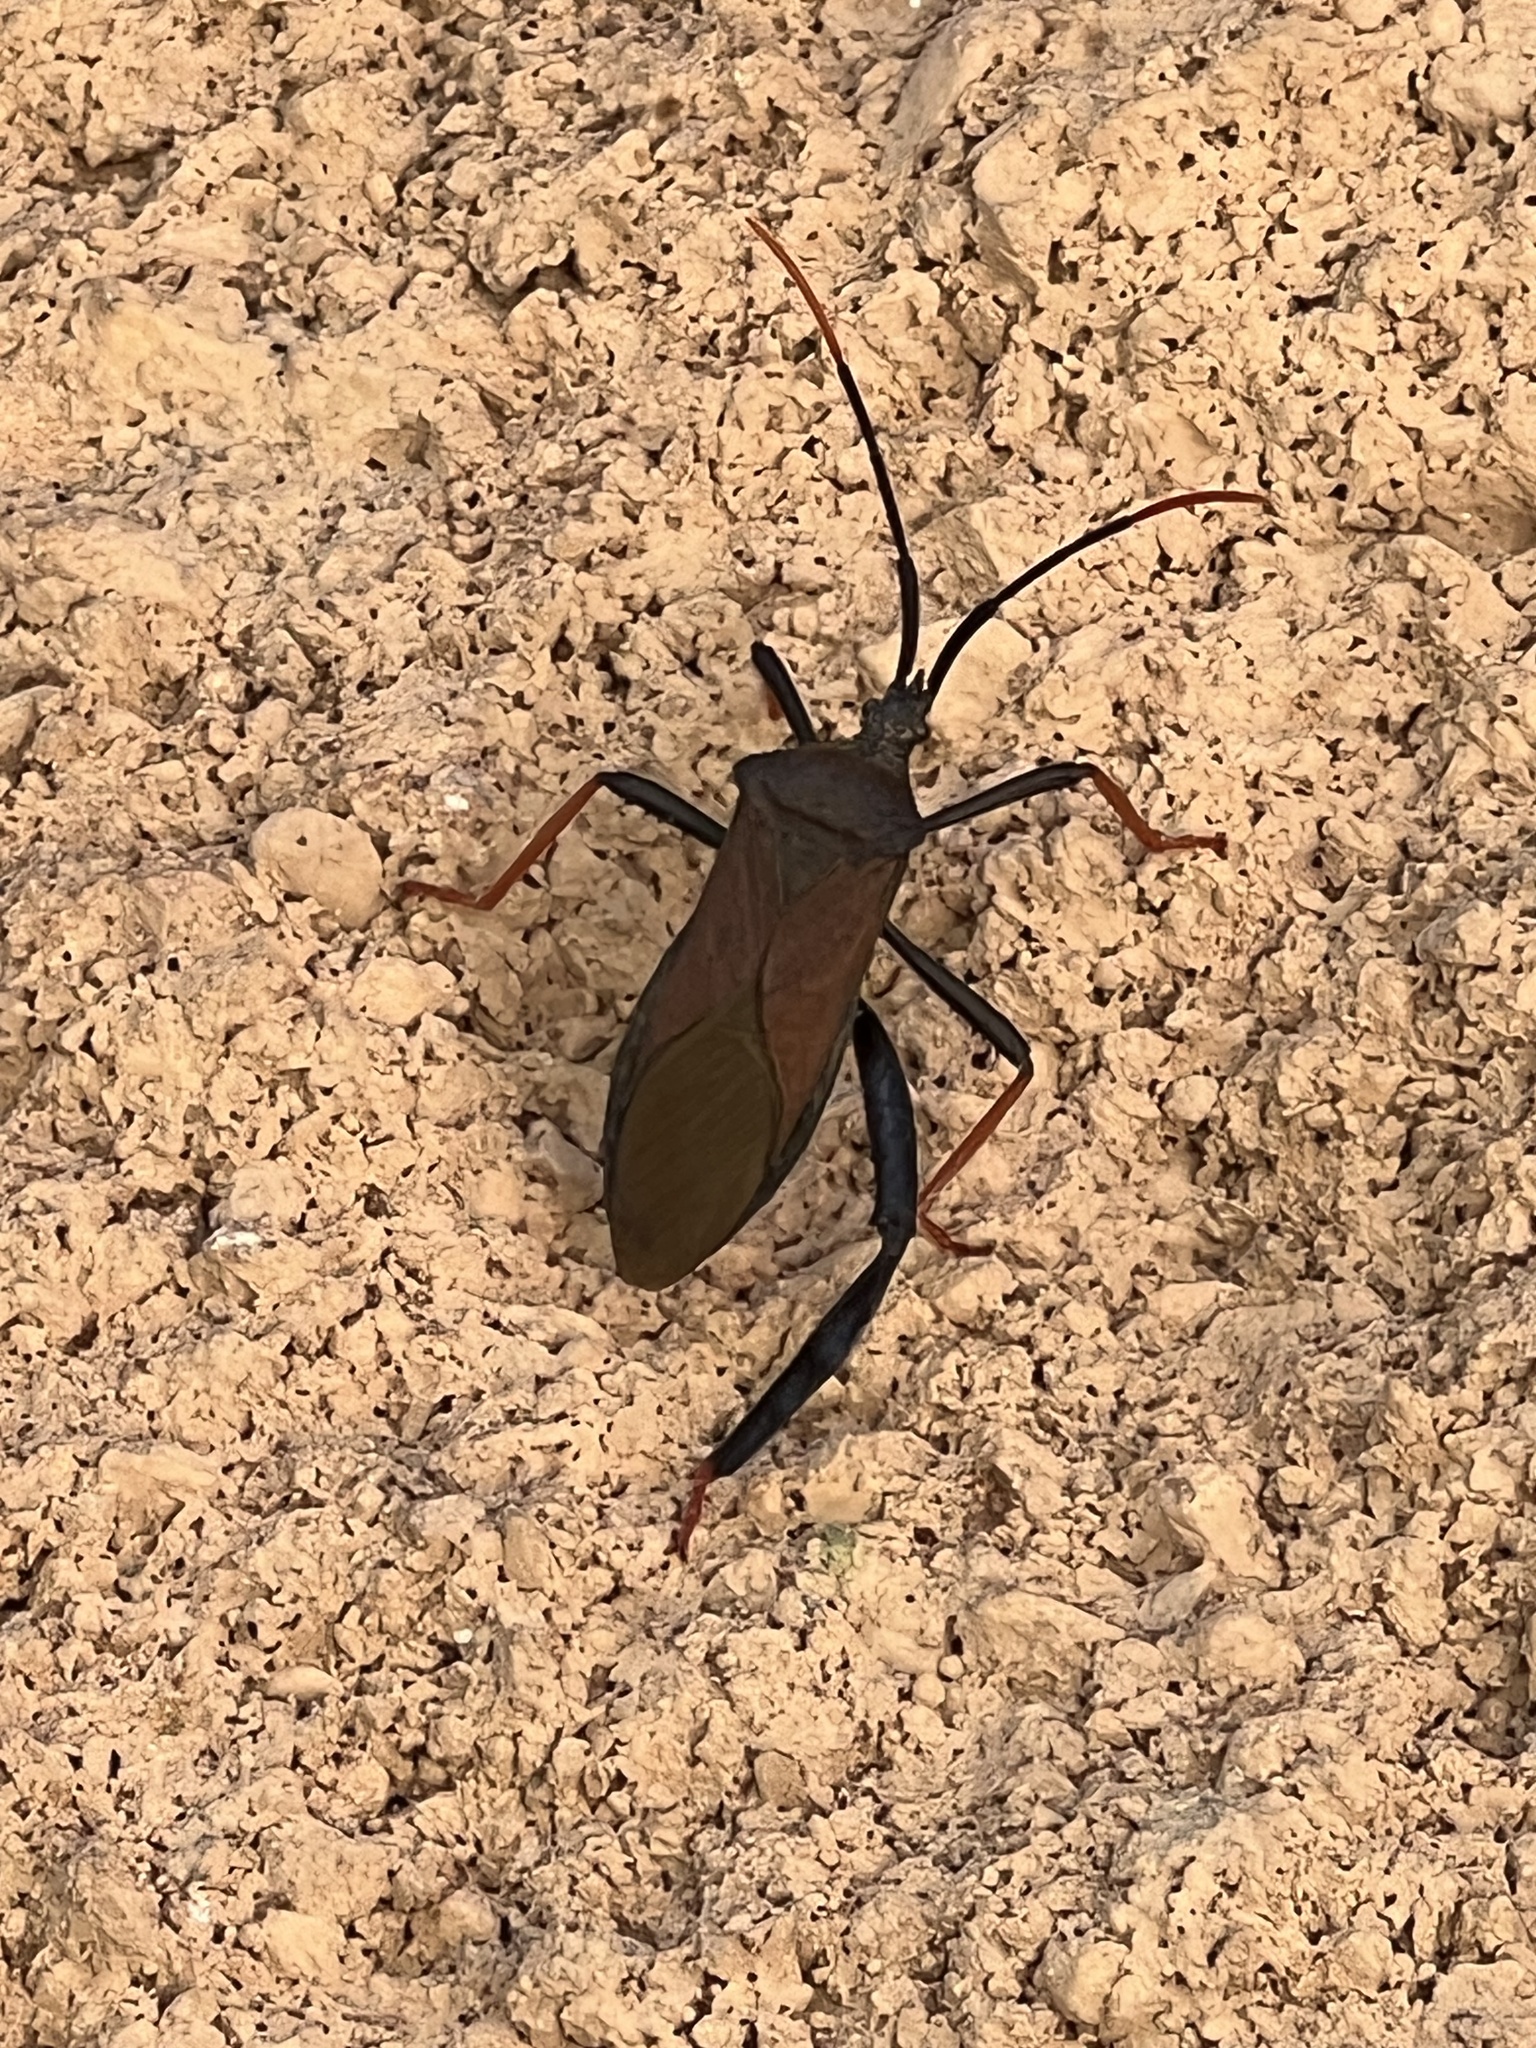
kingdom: Animalia
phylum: Arthropoda
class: Insecta
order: Hemiptera
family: Coreidae
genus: Acanthocephala
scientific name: Acanthocephala thomasi
